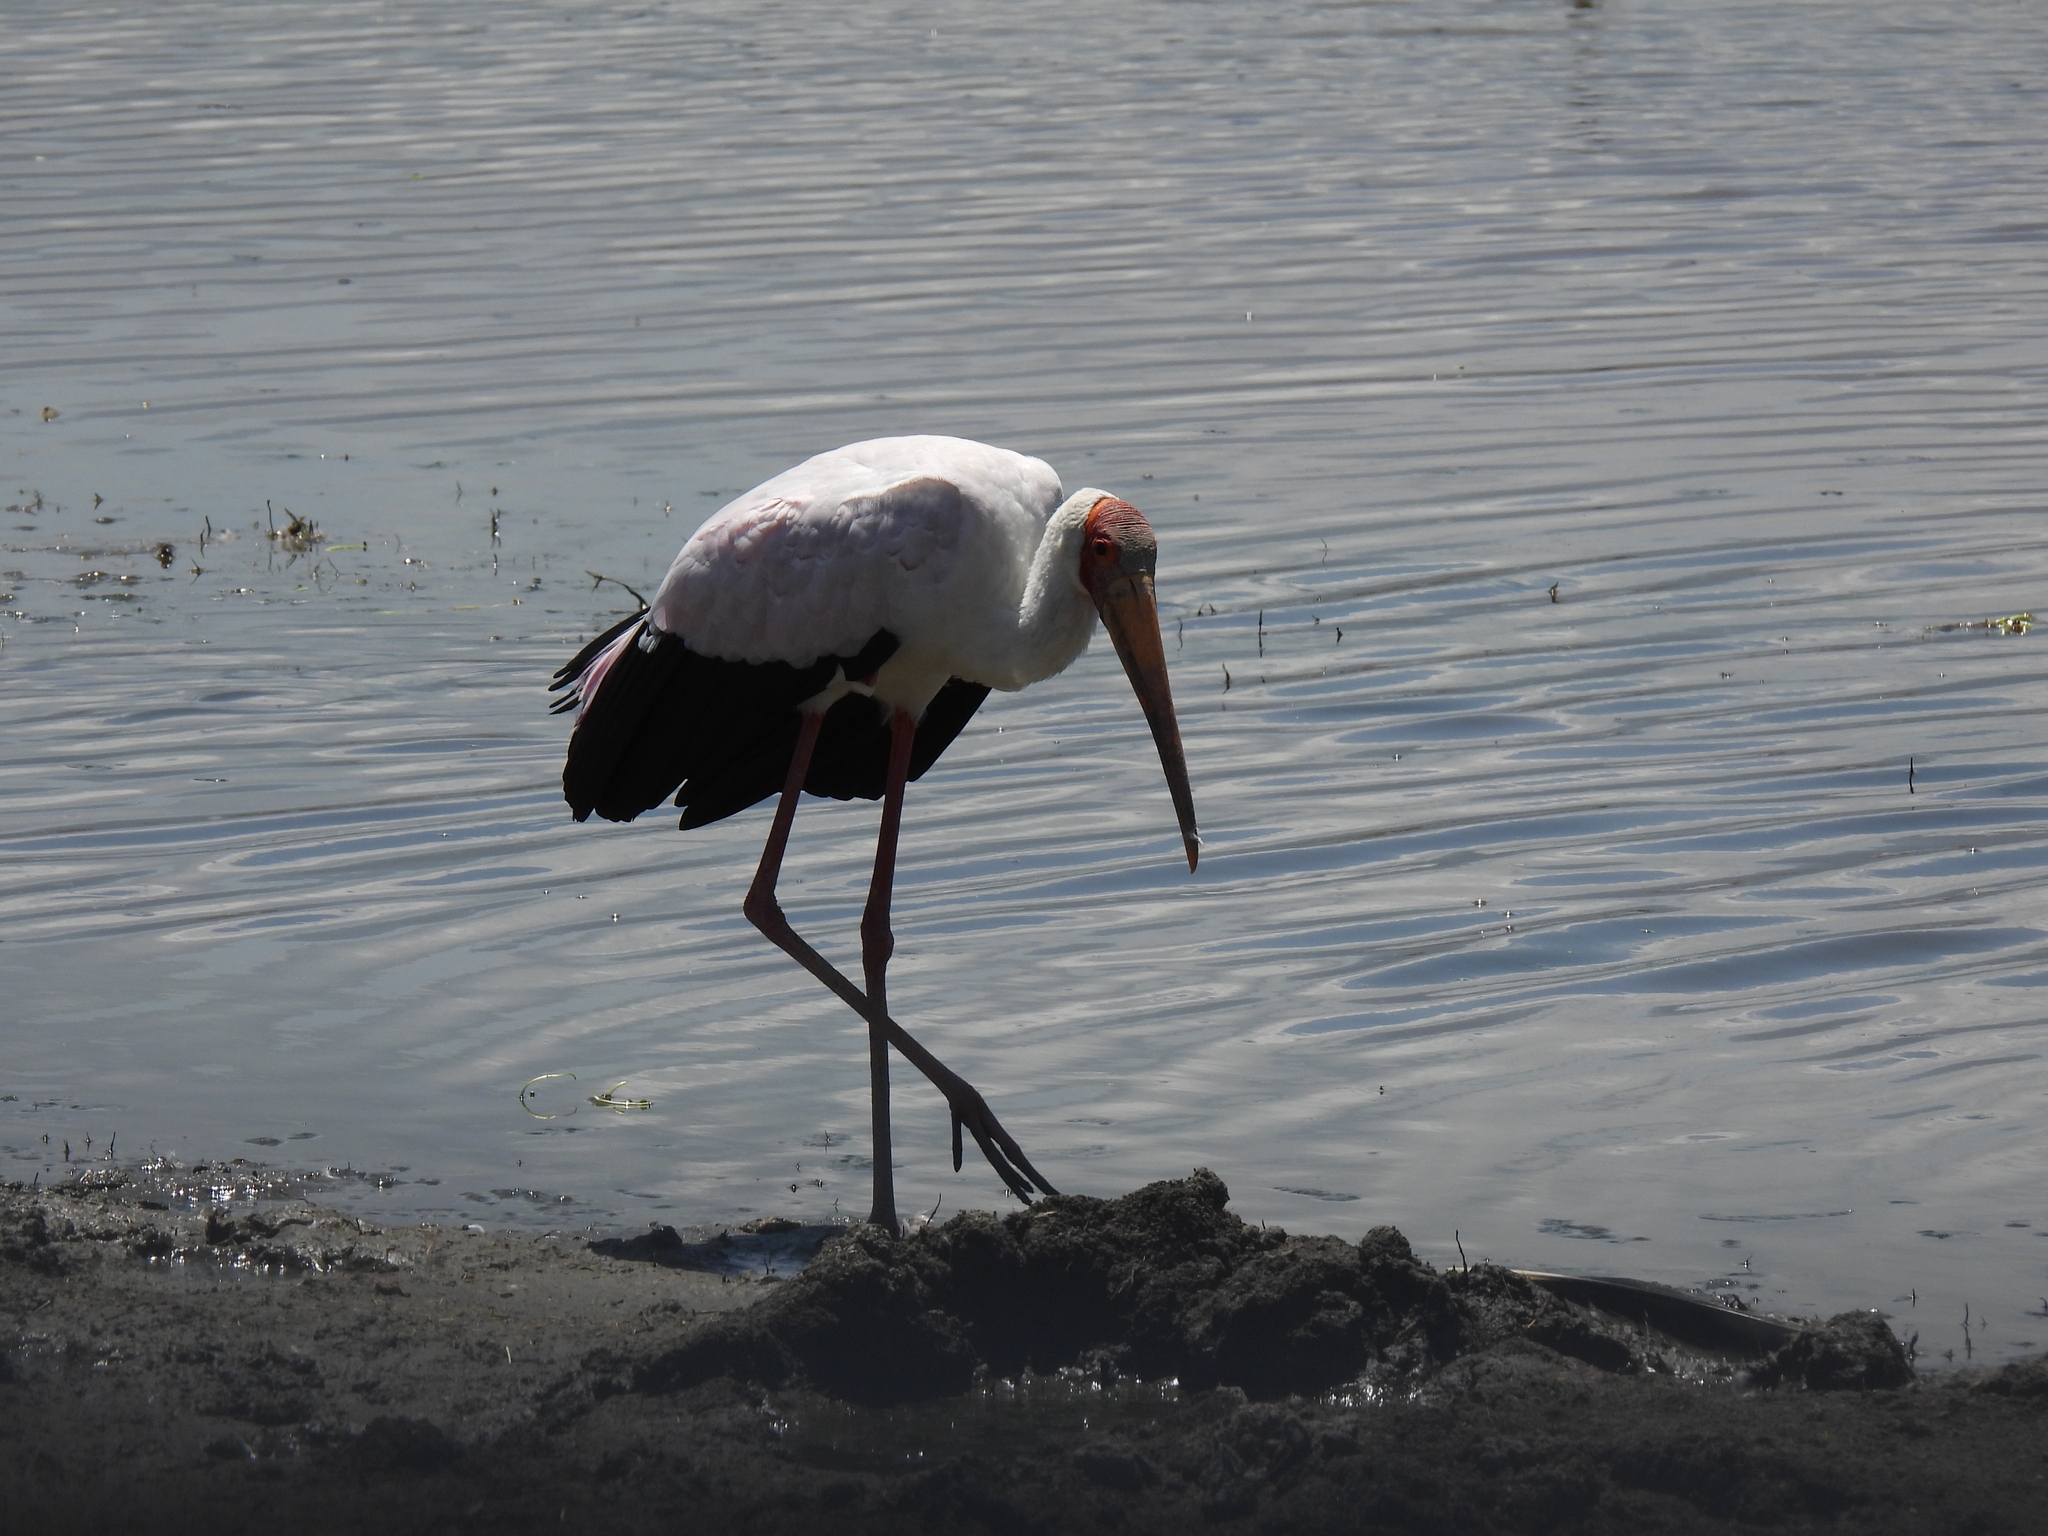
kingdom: Animalia
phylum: Chordata
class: Aves
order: Ciconiiformes
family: Ciconiidae
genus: Mycteria
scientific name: Mycteria ibis
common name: Yellow-billed stork
